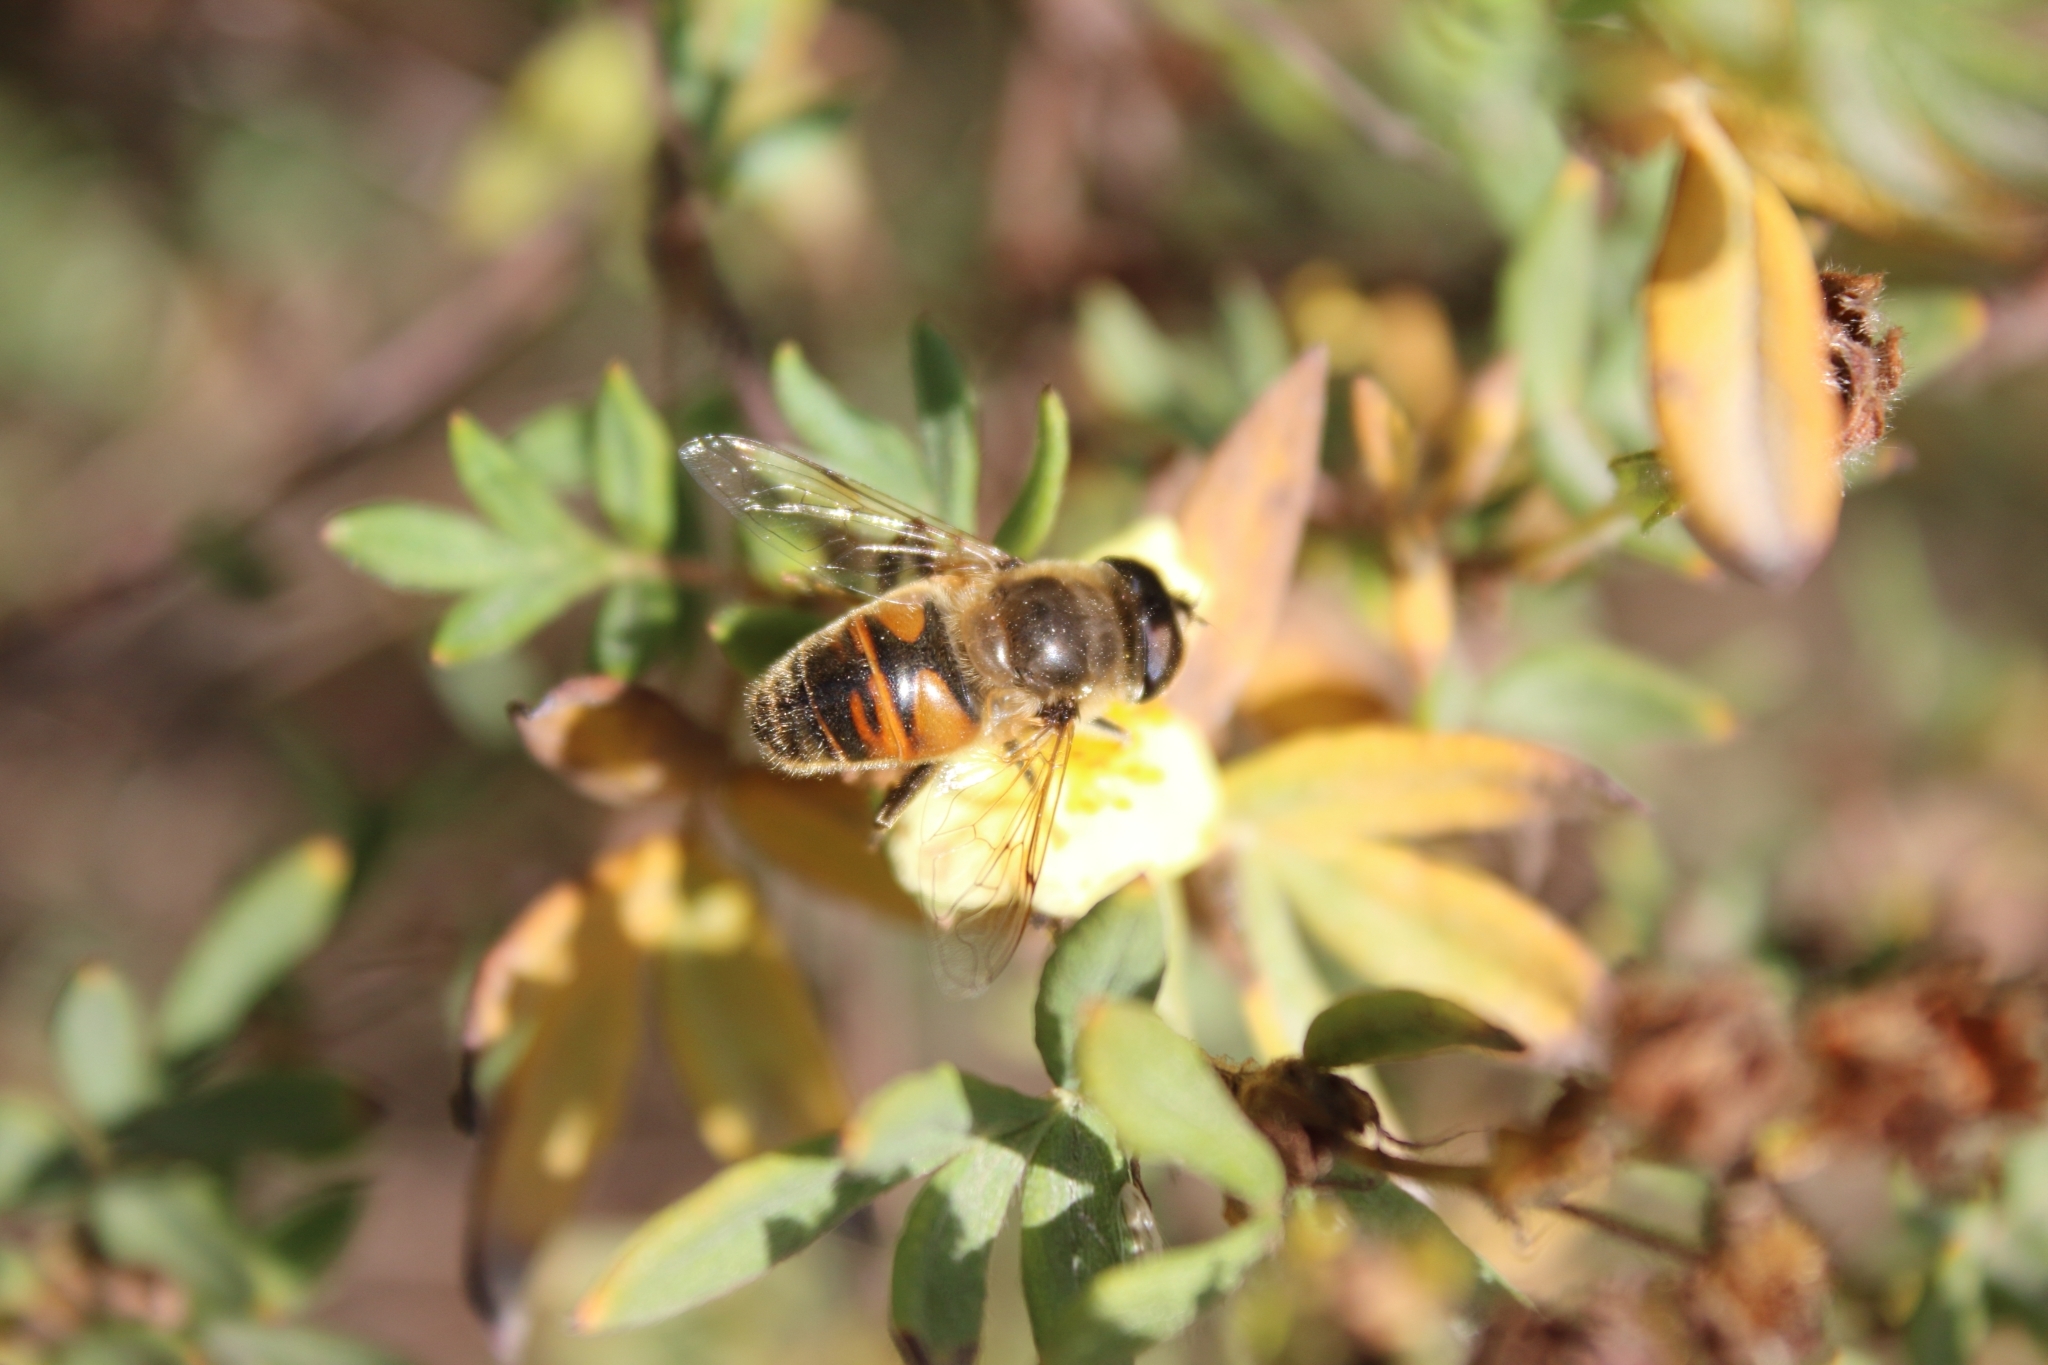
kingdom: Animalia
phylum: Arthropoda
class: Insecta
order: Diptera
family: Syrphidae
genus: Eristalis
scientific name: Eristalis tenax
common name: Drone fly
